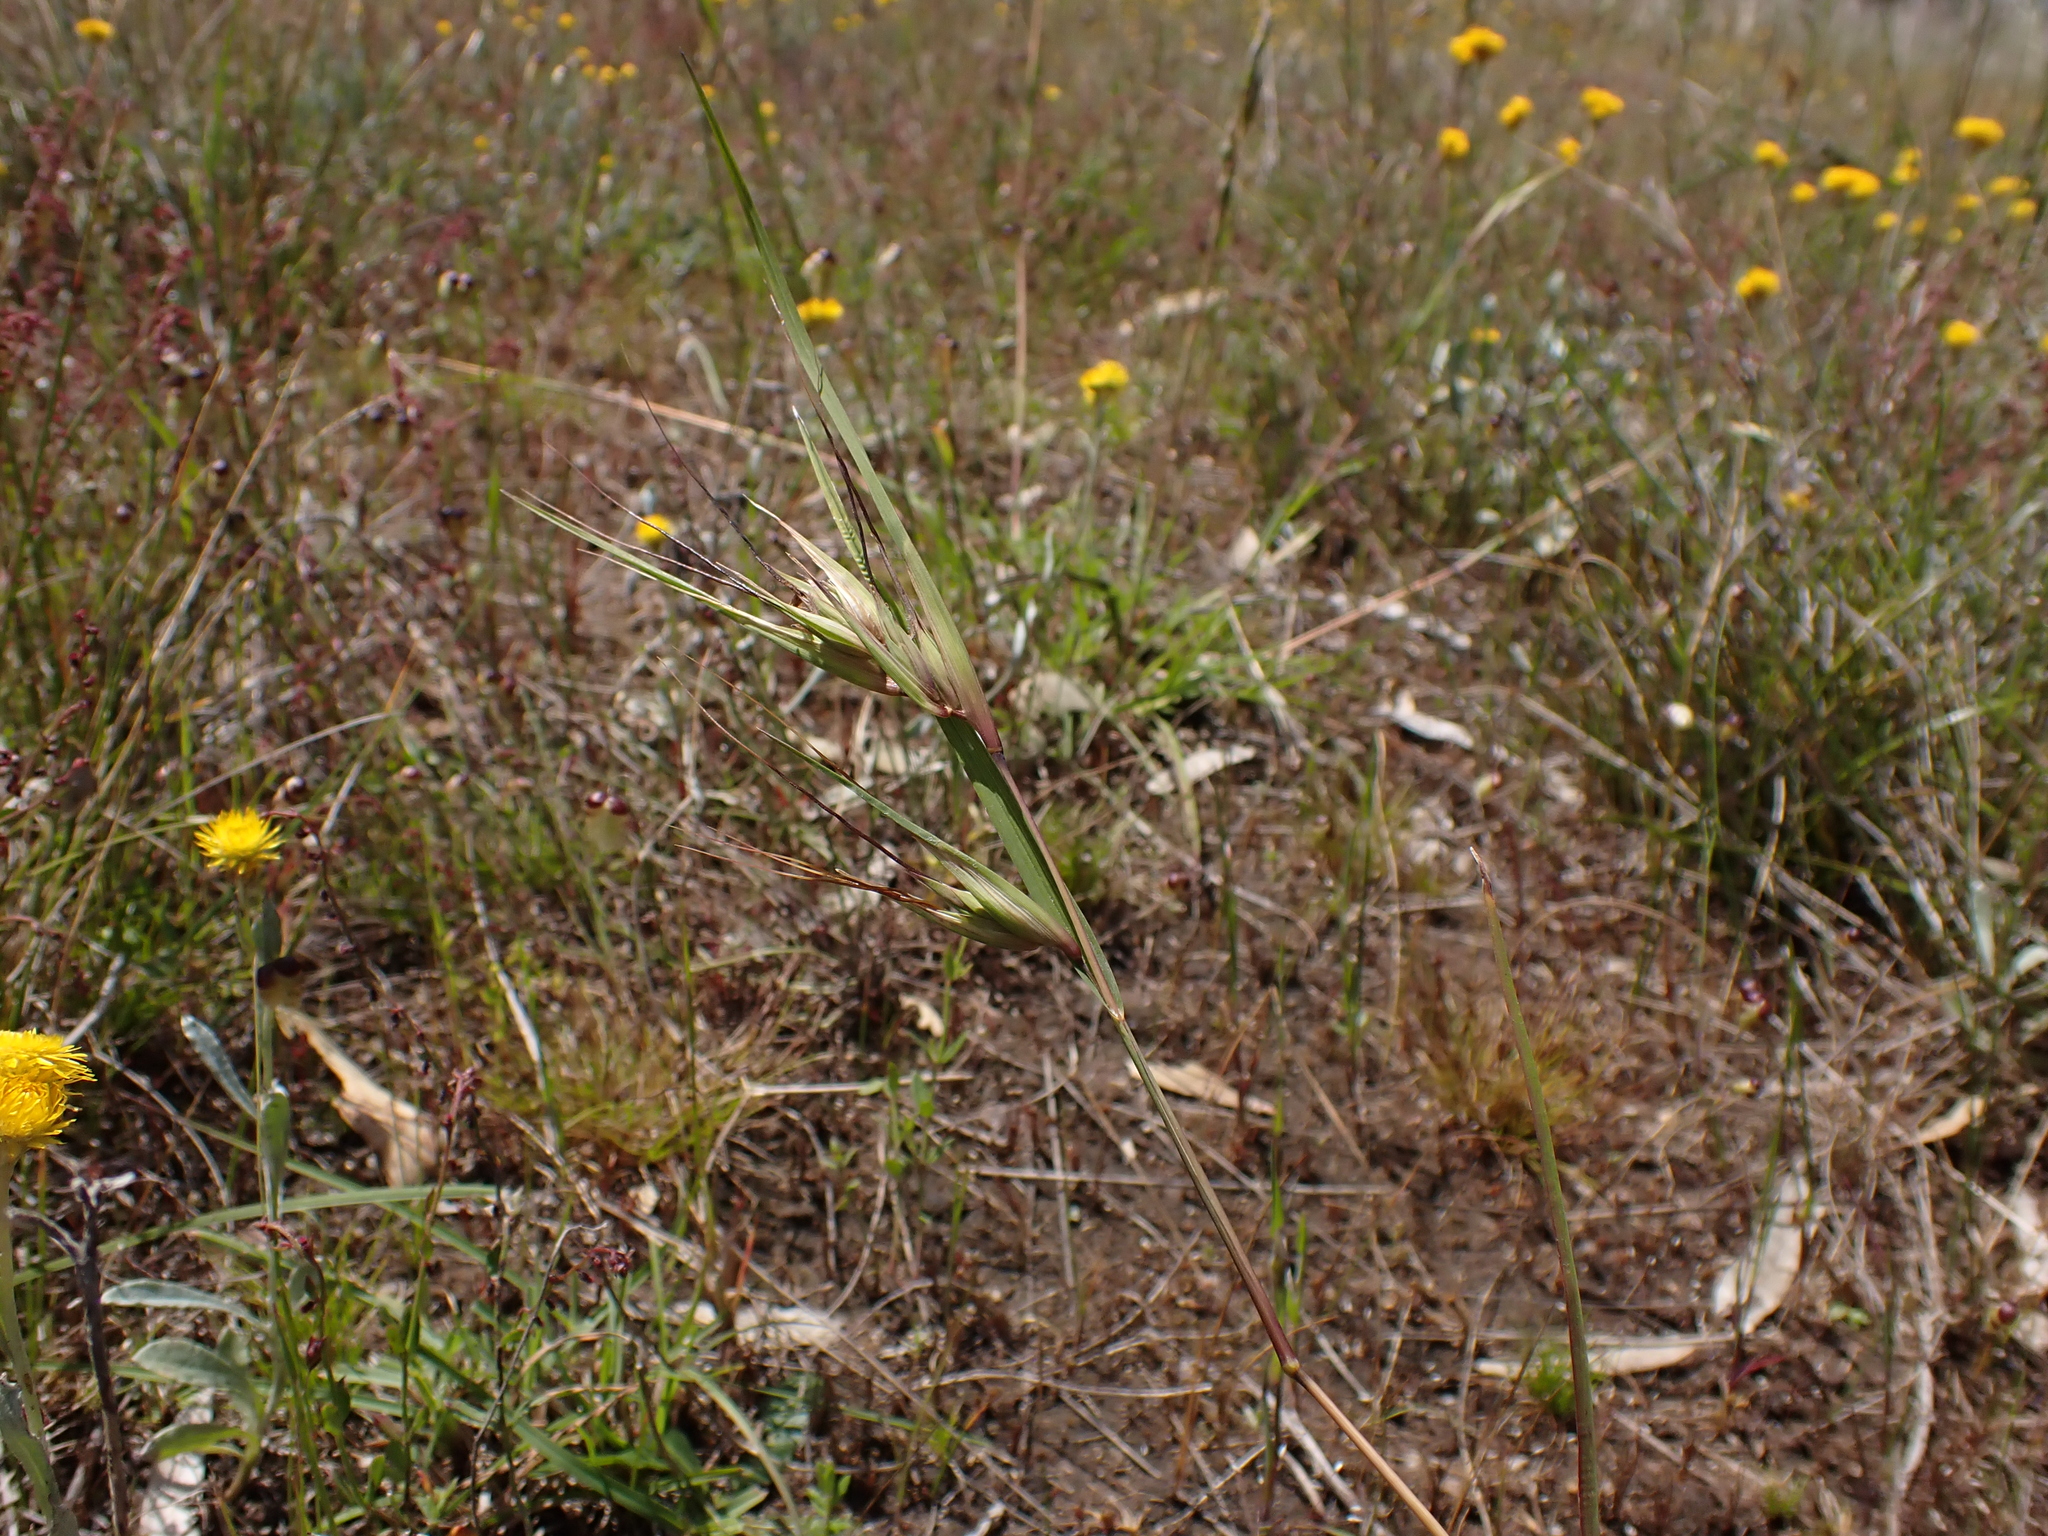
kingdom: Plantae
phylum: Tracheophyta
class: Liliopsida
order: Poales
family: Poaceae
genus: Themeda
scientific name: Themeda triandra
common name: Kangaroo grass
